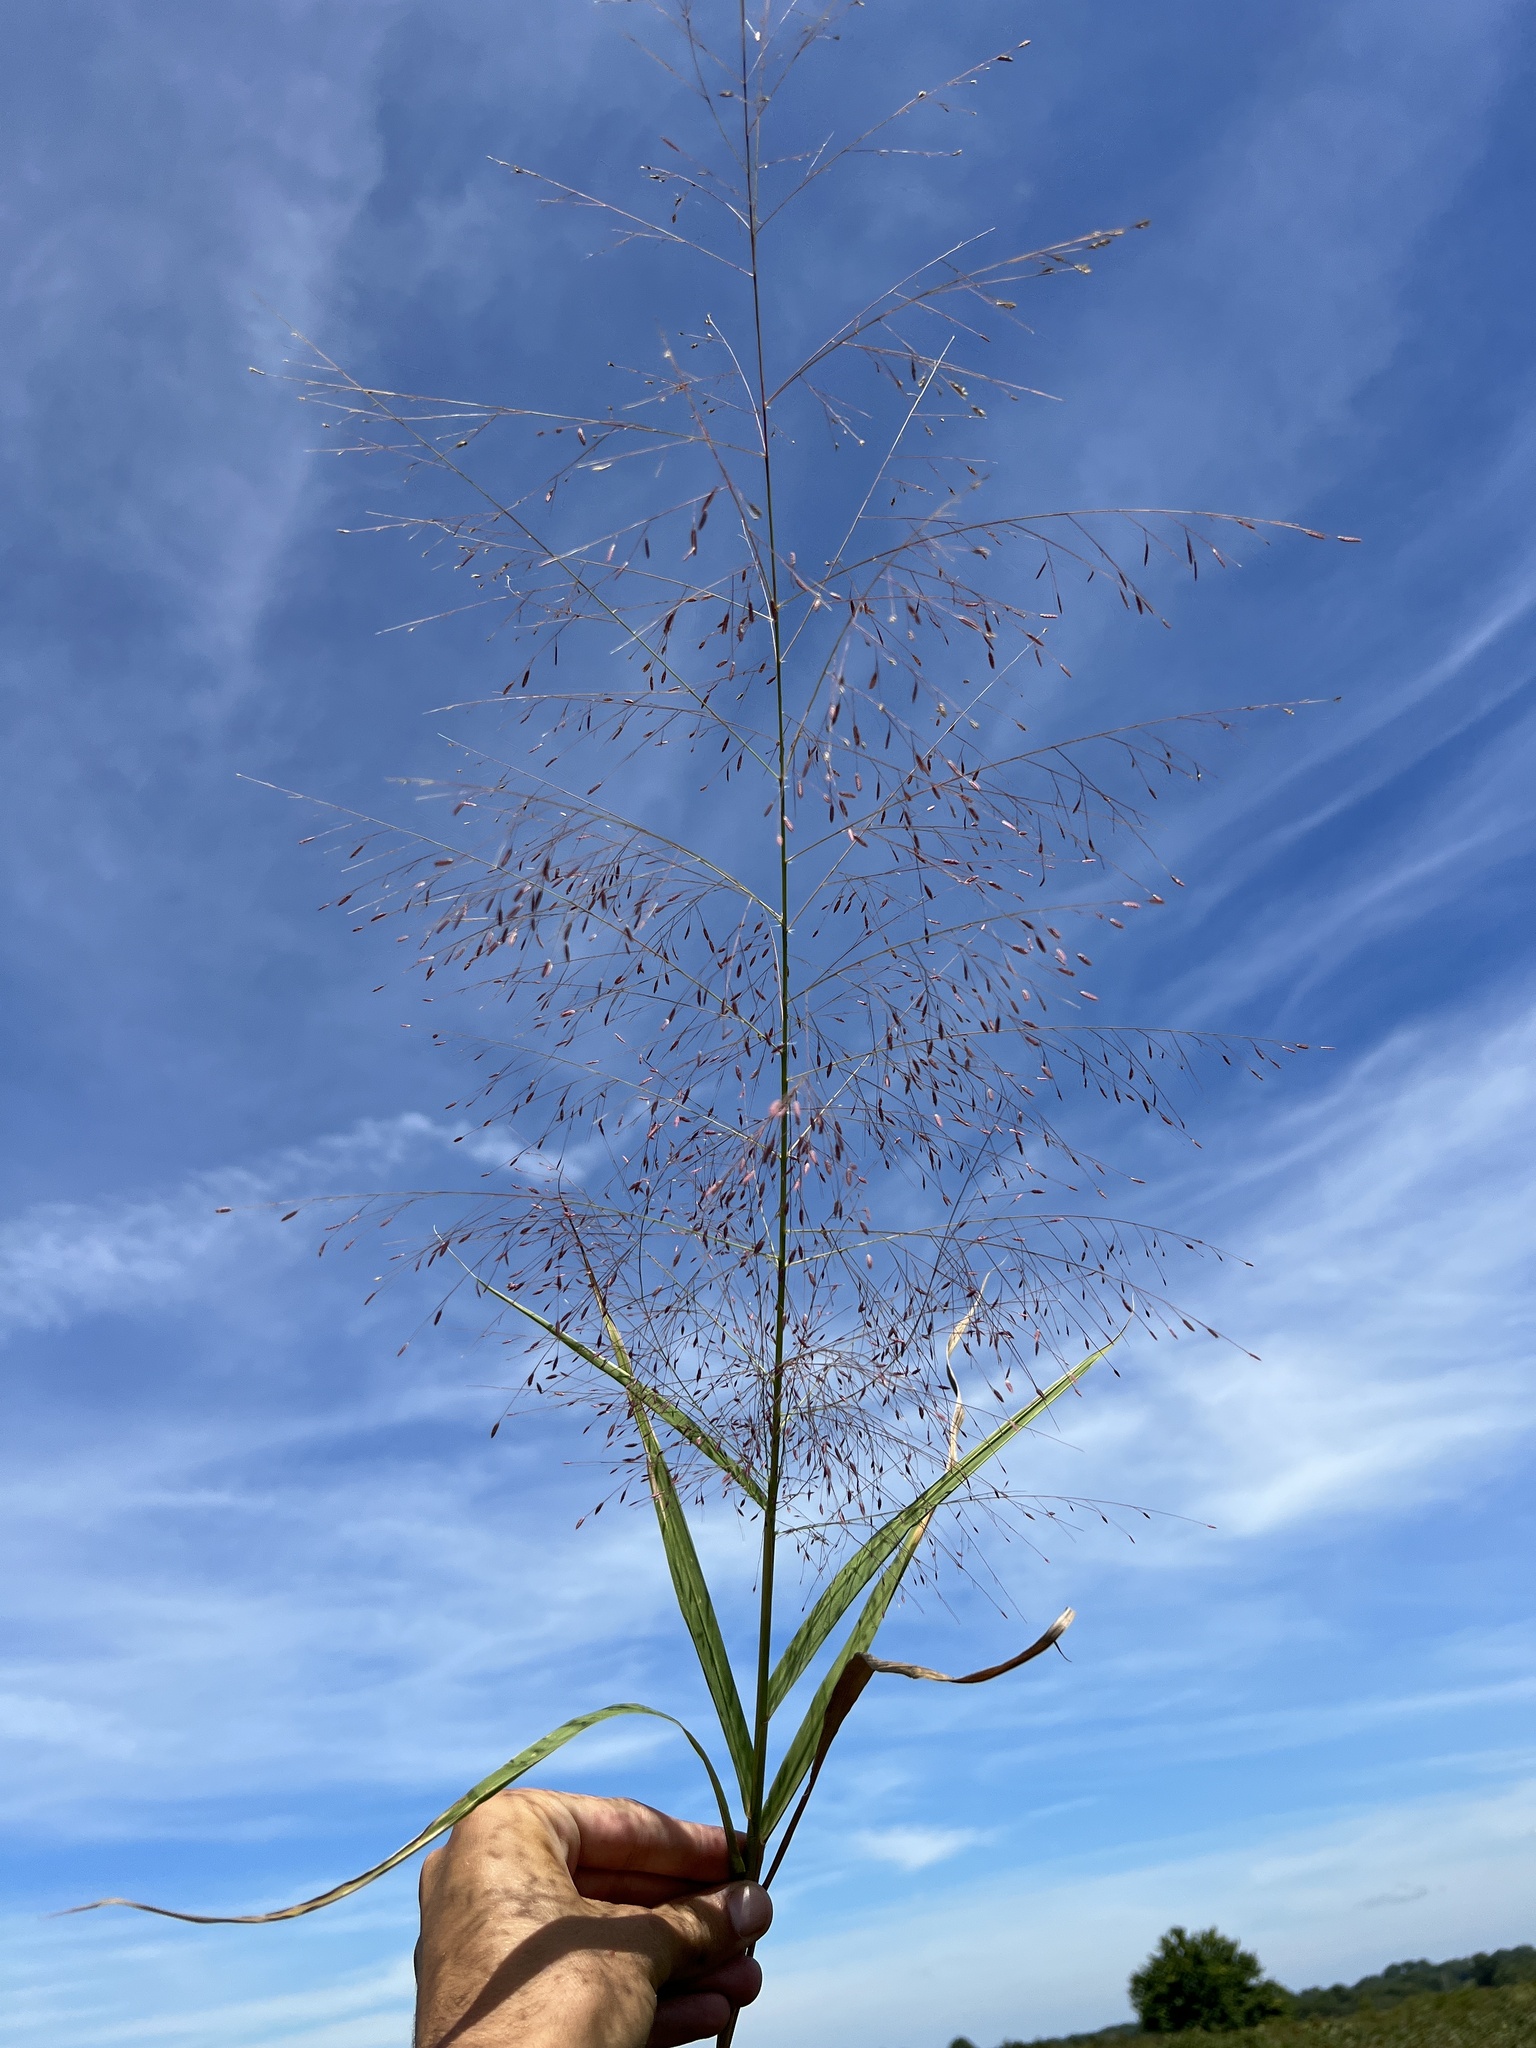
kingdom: Plantae
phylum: Tracheophyta
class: Liliopsida
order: Poales
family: Poaceae
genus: Eragrostis
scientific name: Eragrostis spectabilis
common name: Petticoat-climber
